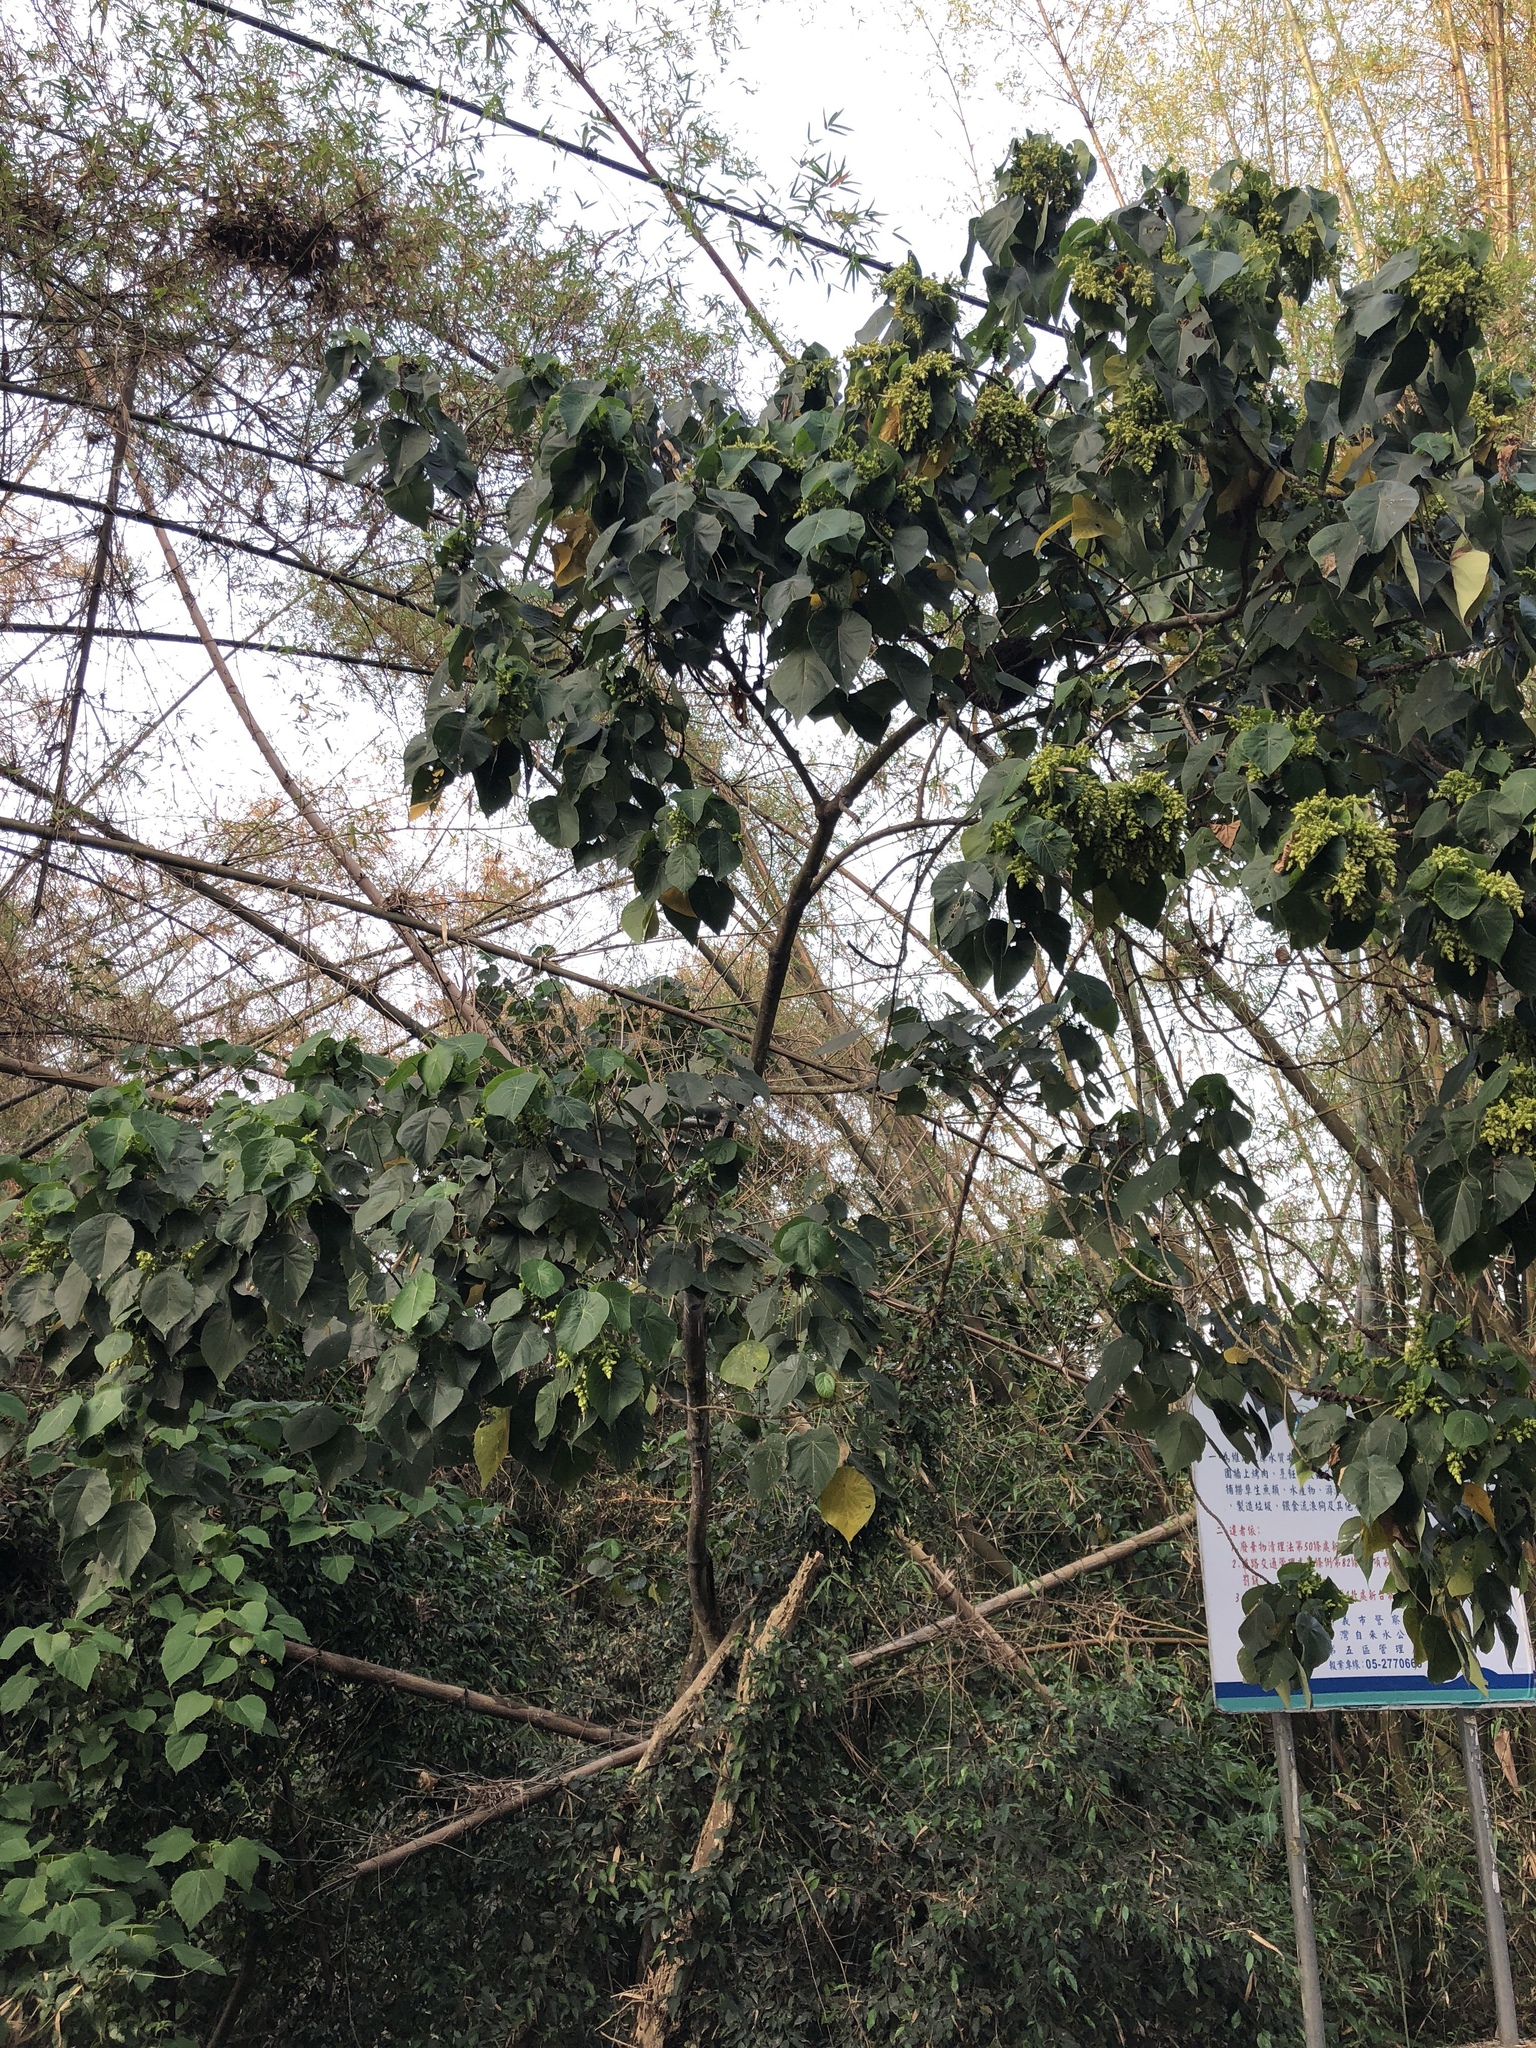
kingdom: Plantae
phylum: Tracheophyta
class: Magnoliopsida
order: Malpighiales
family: Euphorbiaceae
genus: Macaranga
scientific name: Macaranga tanarius
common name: Parasol leaf tree
